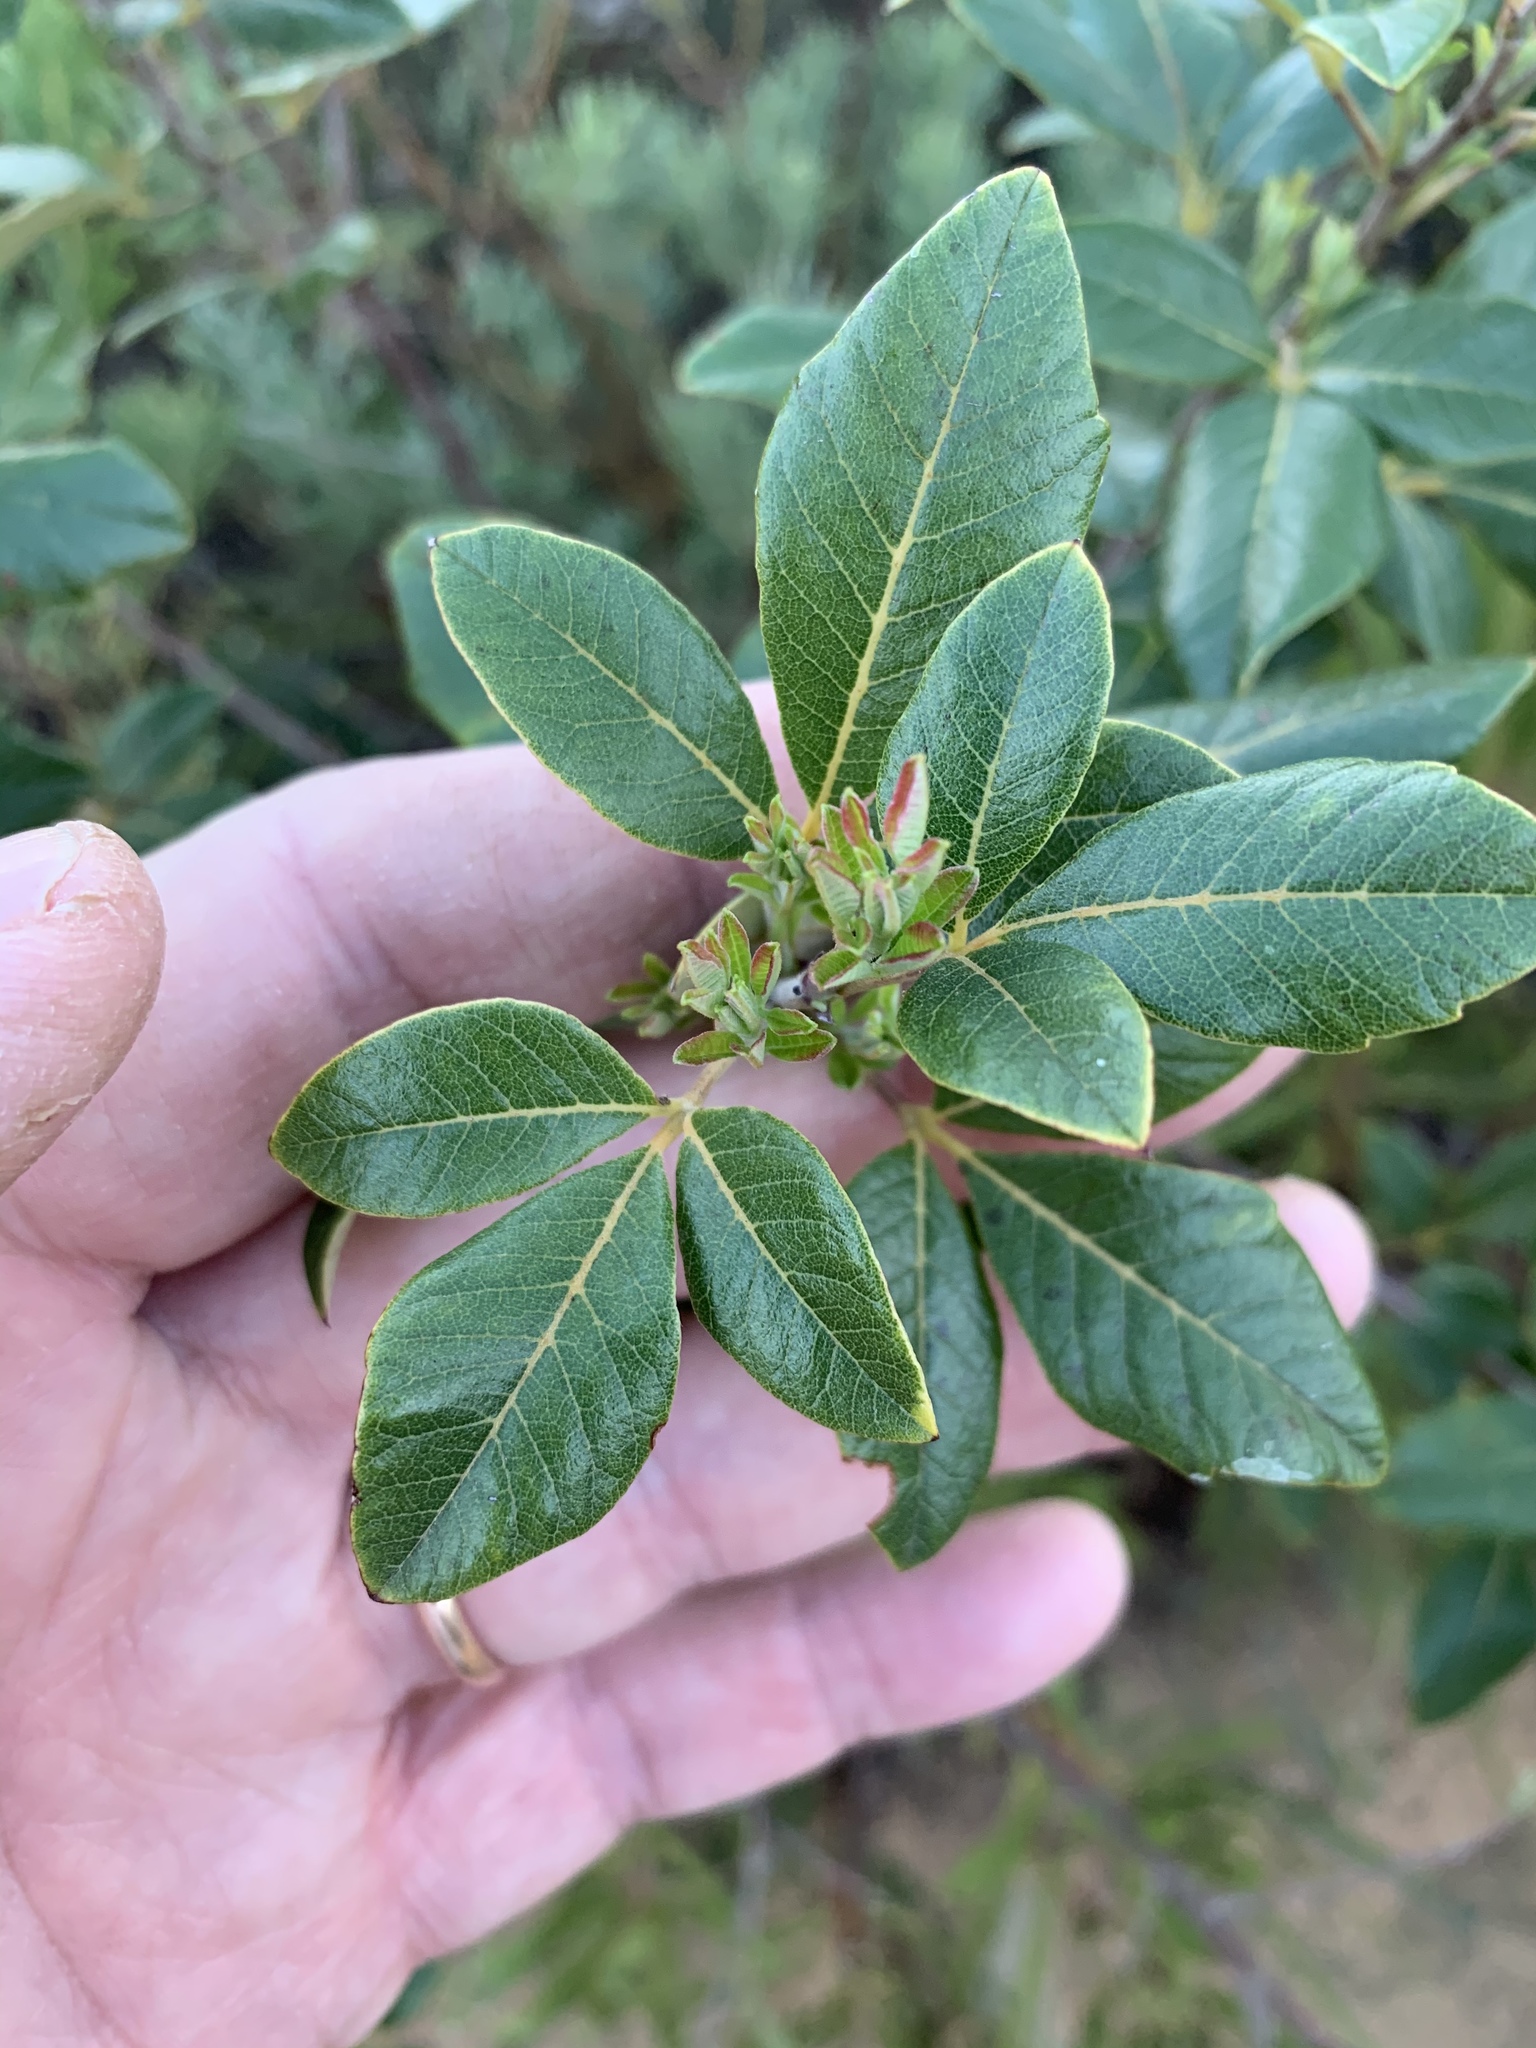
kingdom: Plantae
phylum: Tracheophyta
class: Magnoliopsida
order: Sapindales
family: Anacardiaceae
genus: Searsia
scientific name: Searsia tomentosa
